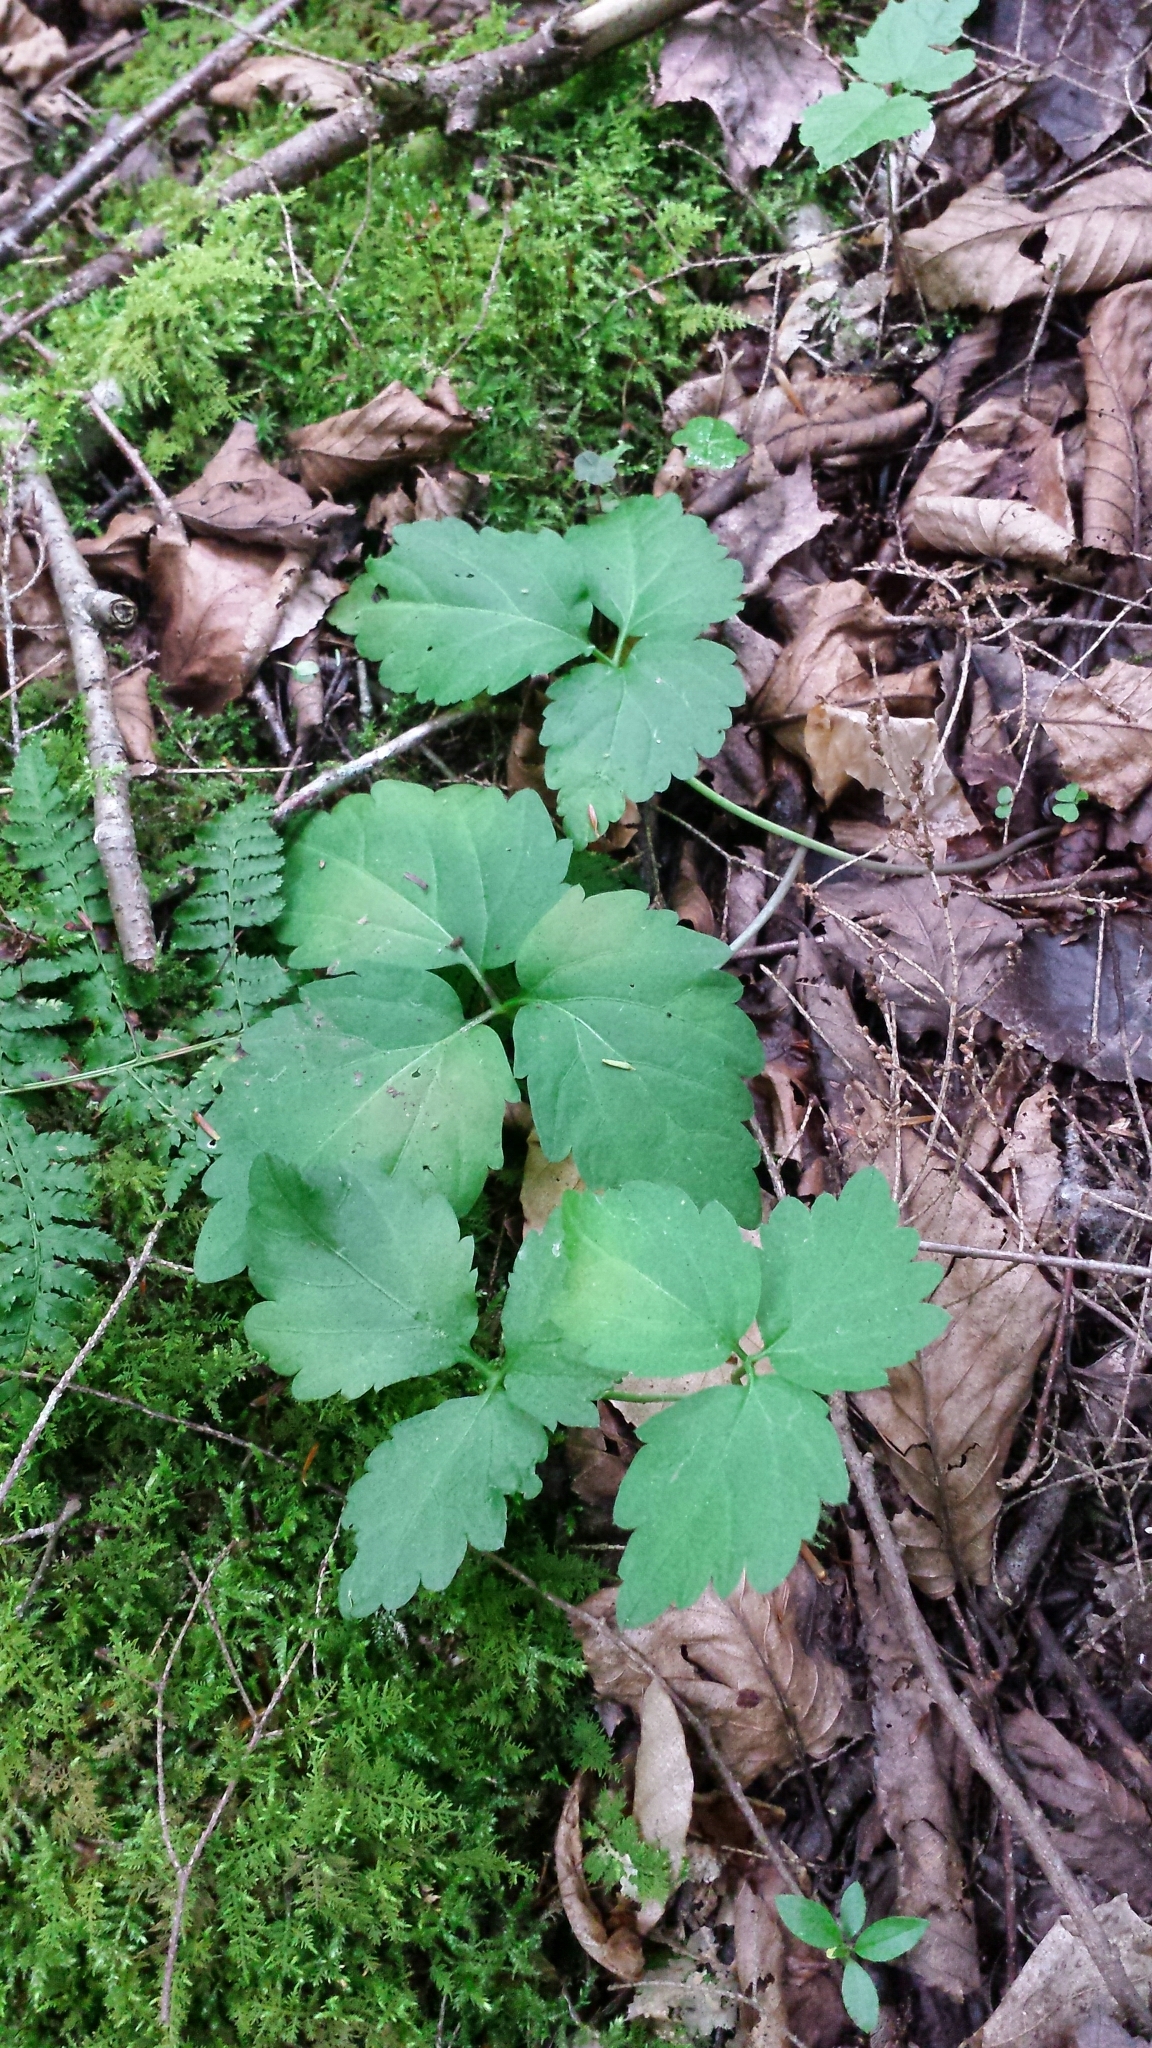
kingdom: Plantae
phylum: Tracheophyta
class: Magnoliopsida
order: Brassicales
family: Brassicaceae
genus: Cardamine
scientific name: Cardamine diphylla
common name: Broad-leaved toothwort
